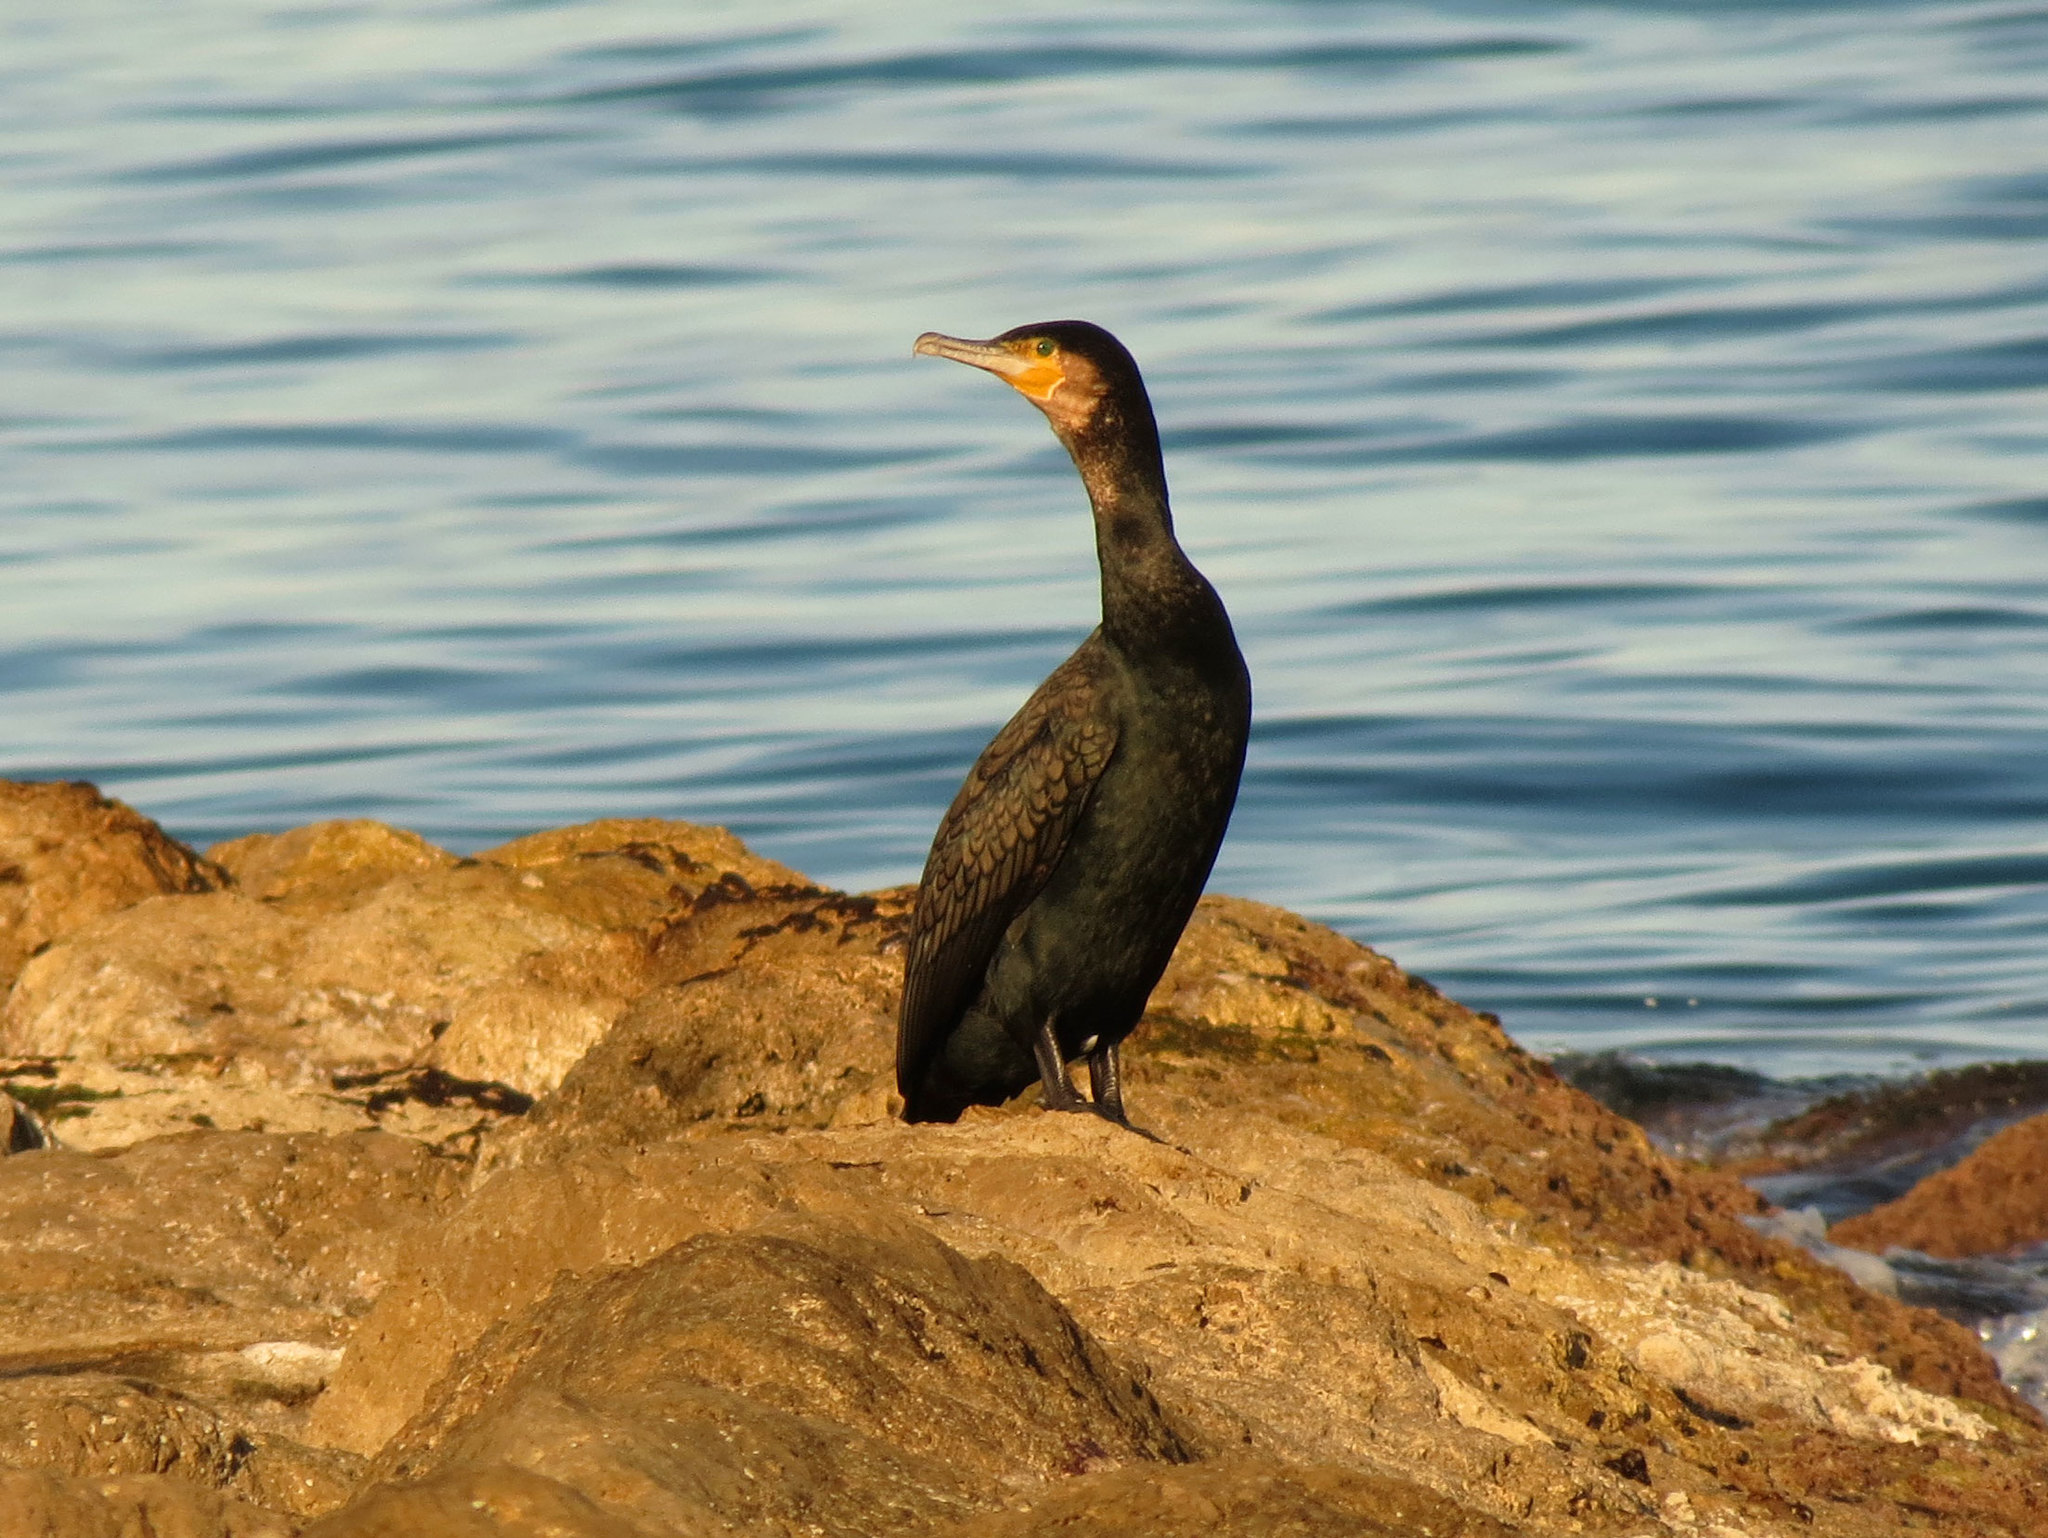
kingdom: Animalia
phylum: Chordata
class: Aves
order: Suliformes
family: Phalacrocoracidae
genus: Phalacrocorax
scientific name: Phalacrocorax carbo
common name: Great cormorant
